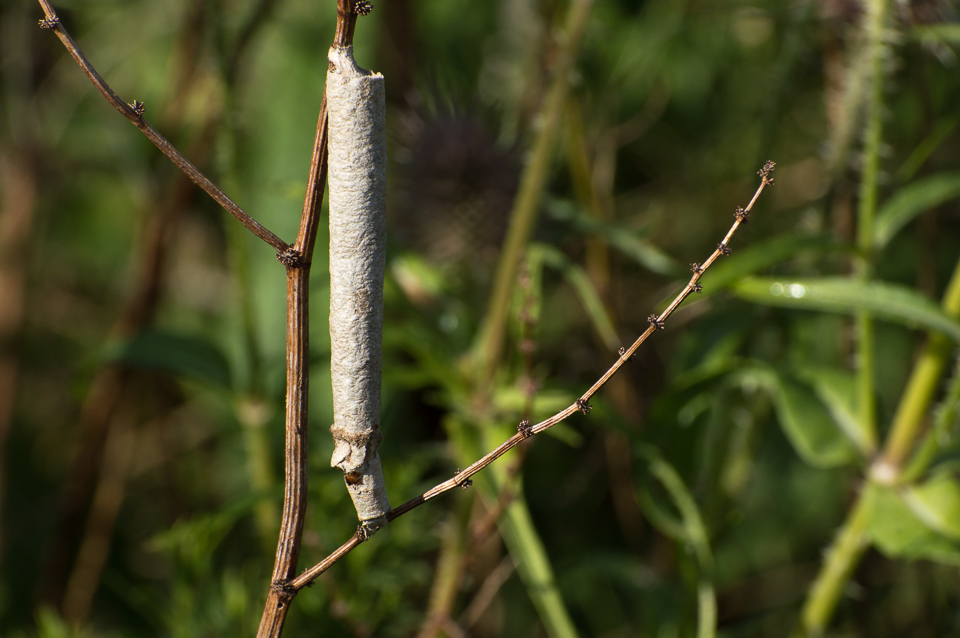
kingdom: Animalia
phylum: Arthropoda
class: Insecta
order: Lepidoptera
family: Psychidae
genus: Oiketicus
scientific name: Oiketicus geyeri
